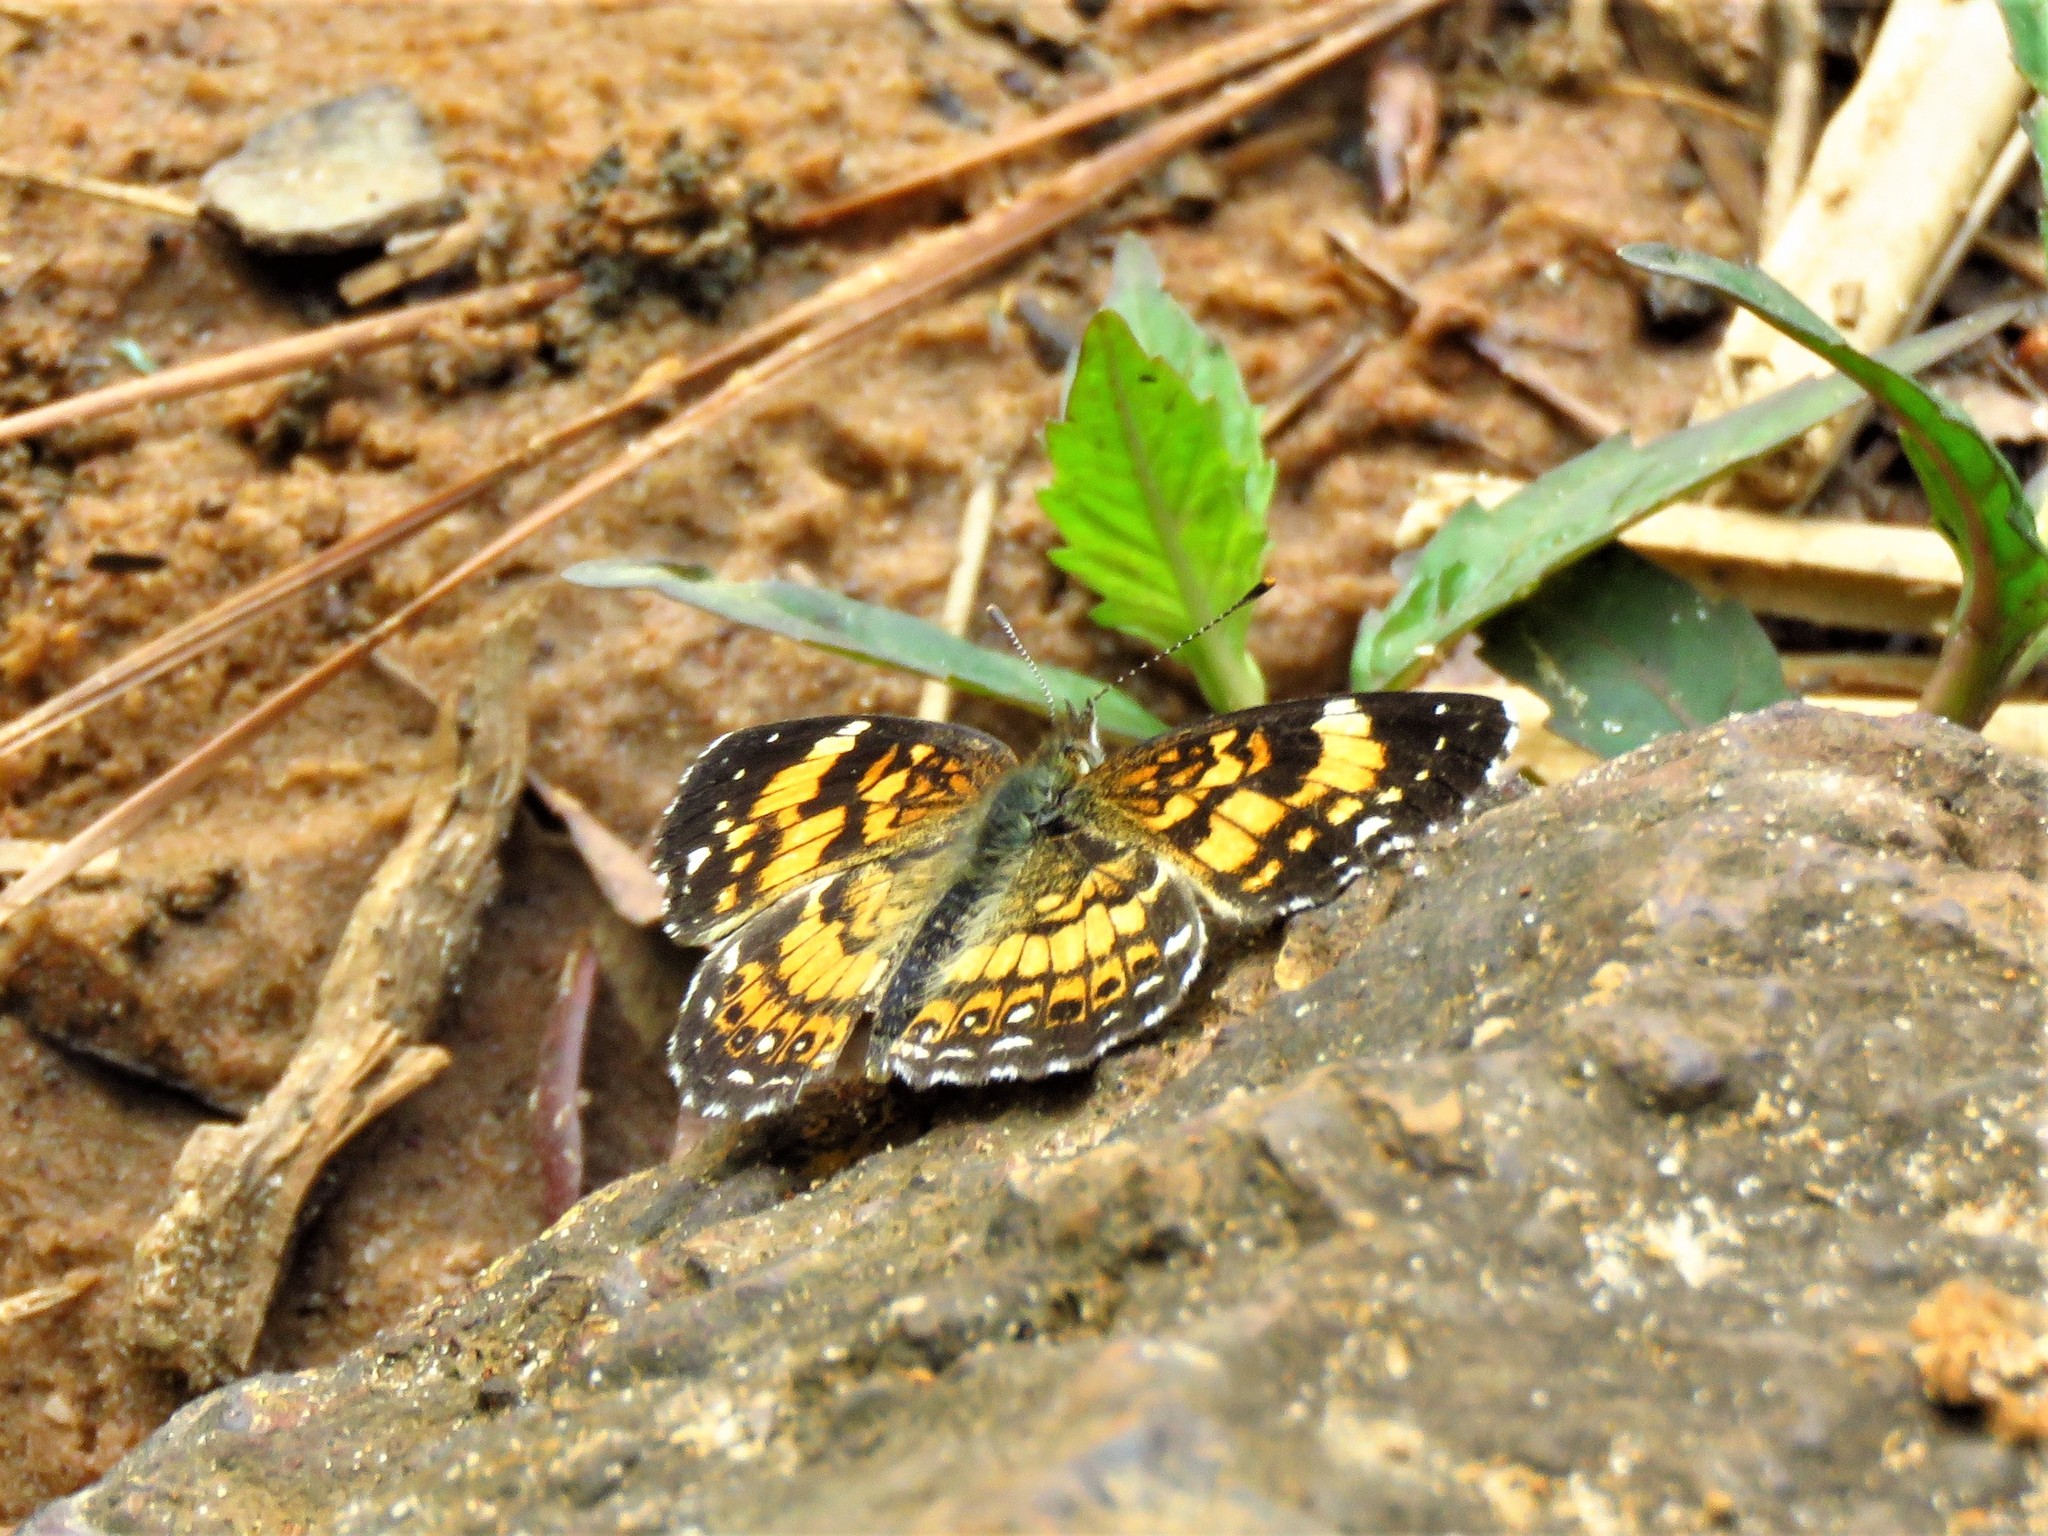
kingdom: Animalia
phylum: Arthropoda
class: Insecta
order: Lepidoptera
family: Nymphalidae
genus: Phyciodes
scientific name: Phyciodes phaon
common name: Phaon crescent
